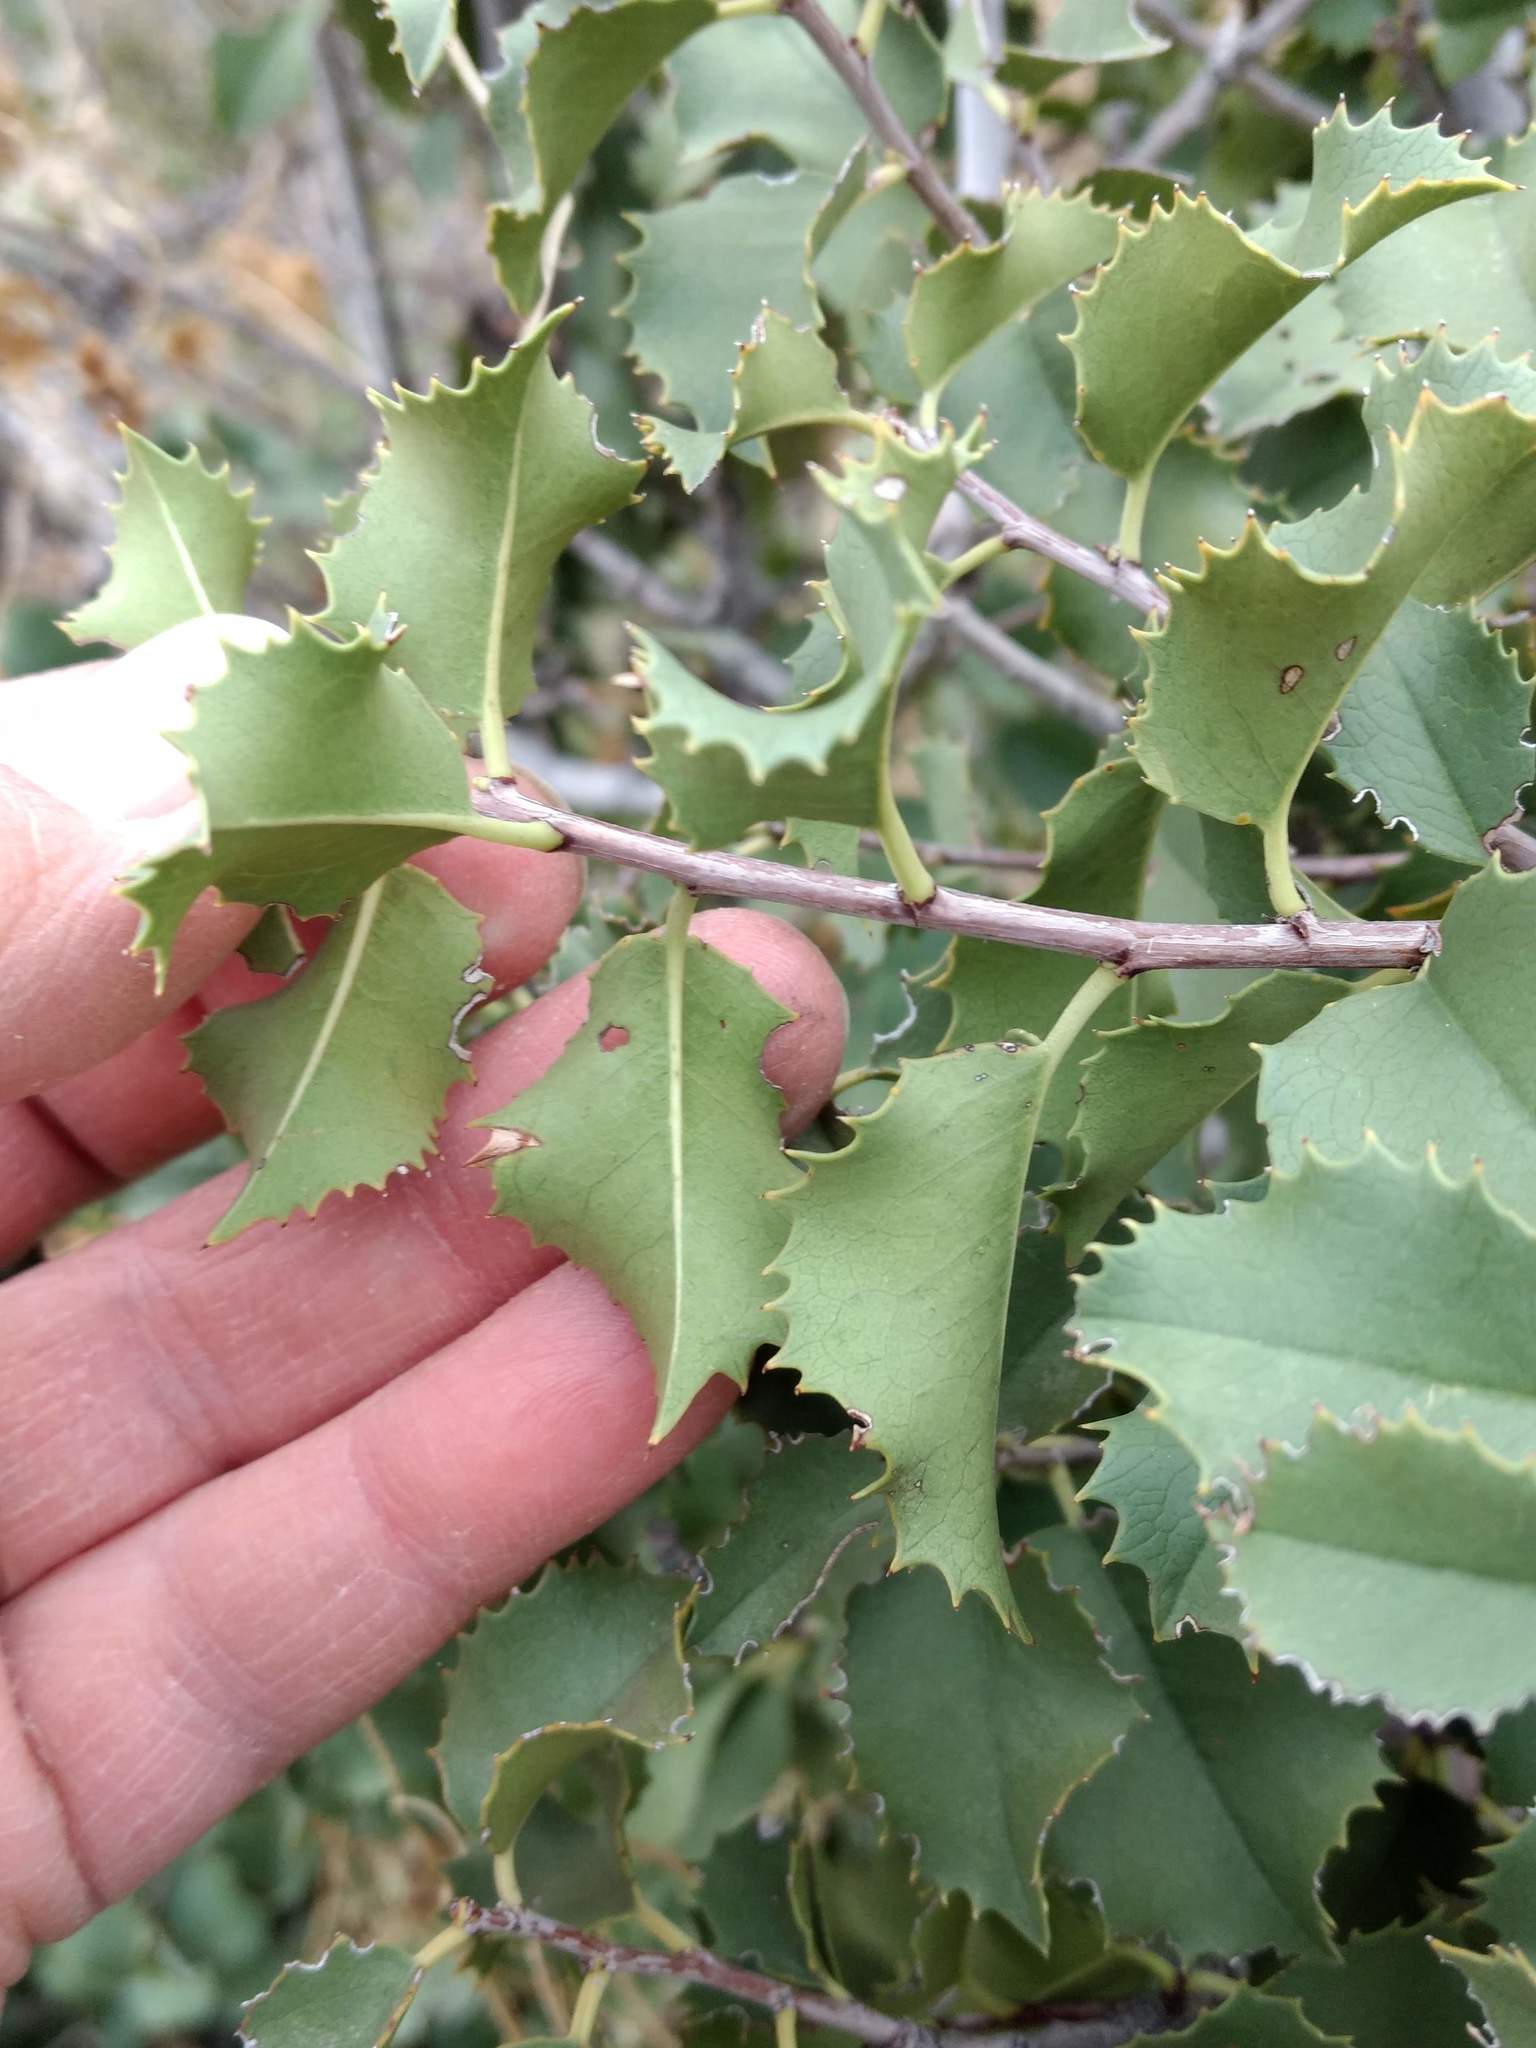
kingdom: Plantae
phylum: Tracheophyta
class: Magnoliopsida
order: Rosales
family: Rosaceae
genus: Prunus
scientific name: Prunus ilicifolia
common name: Hollyleaf cherry
